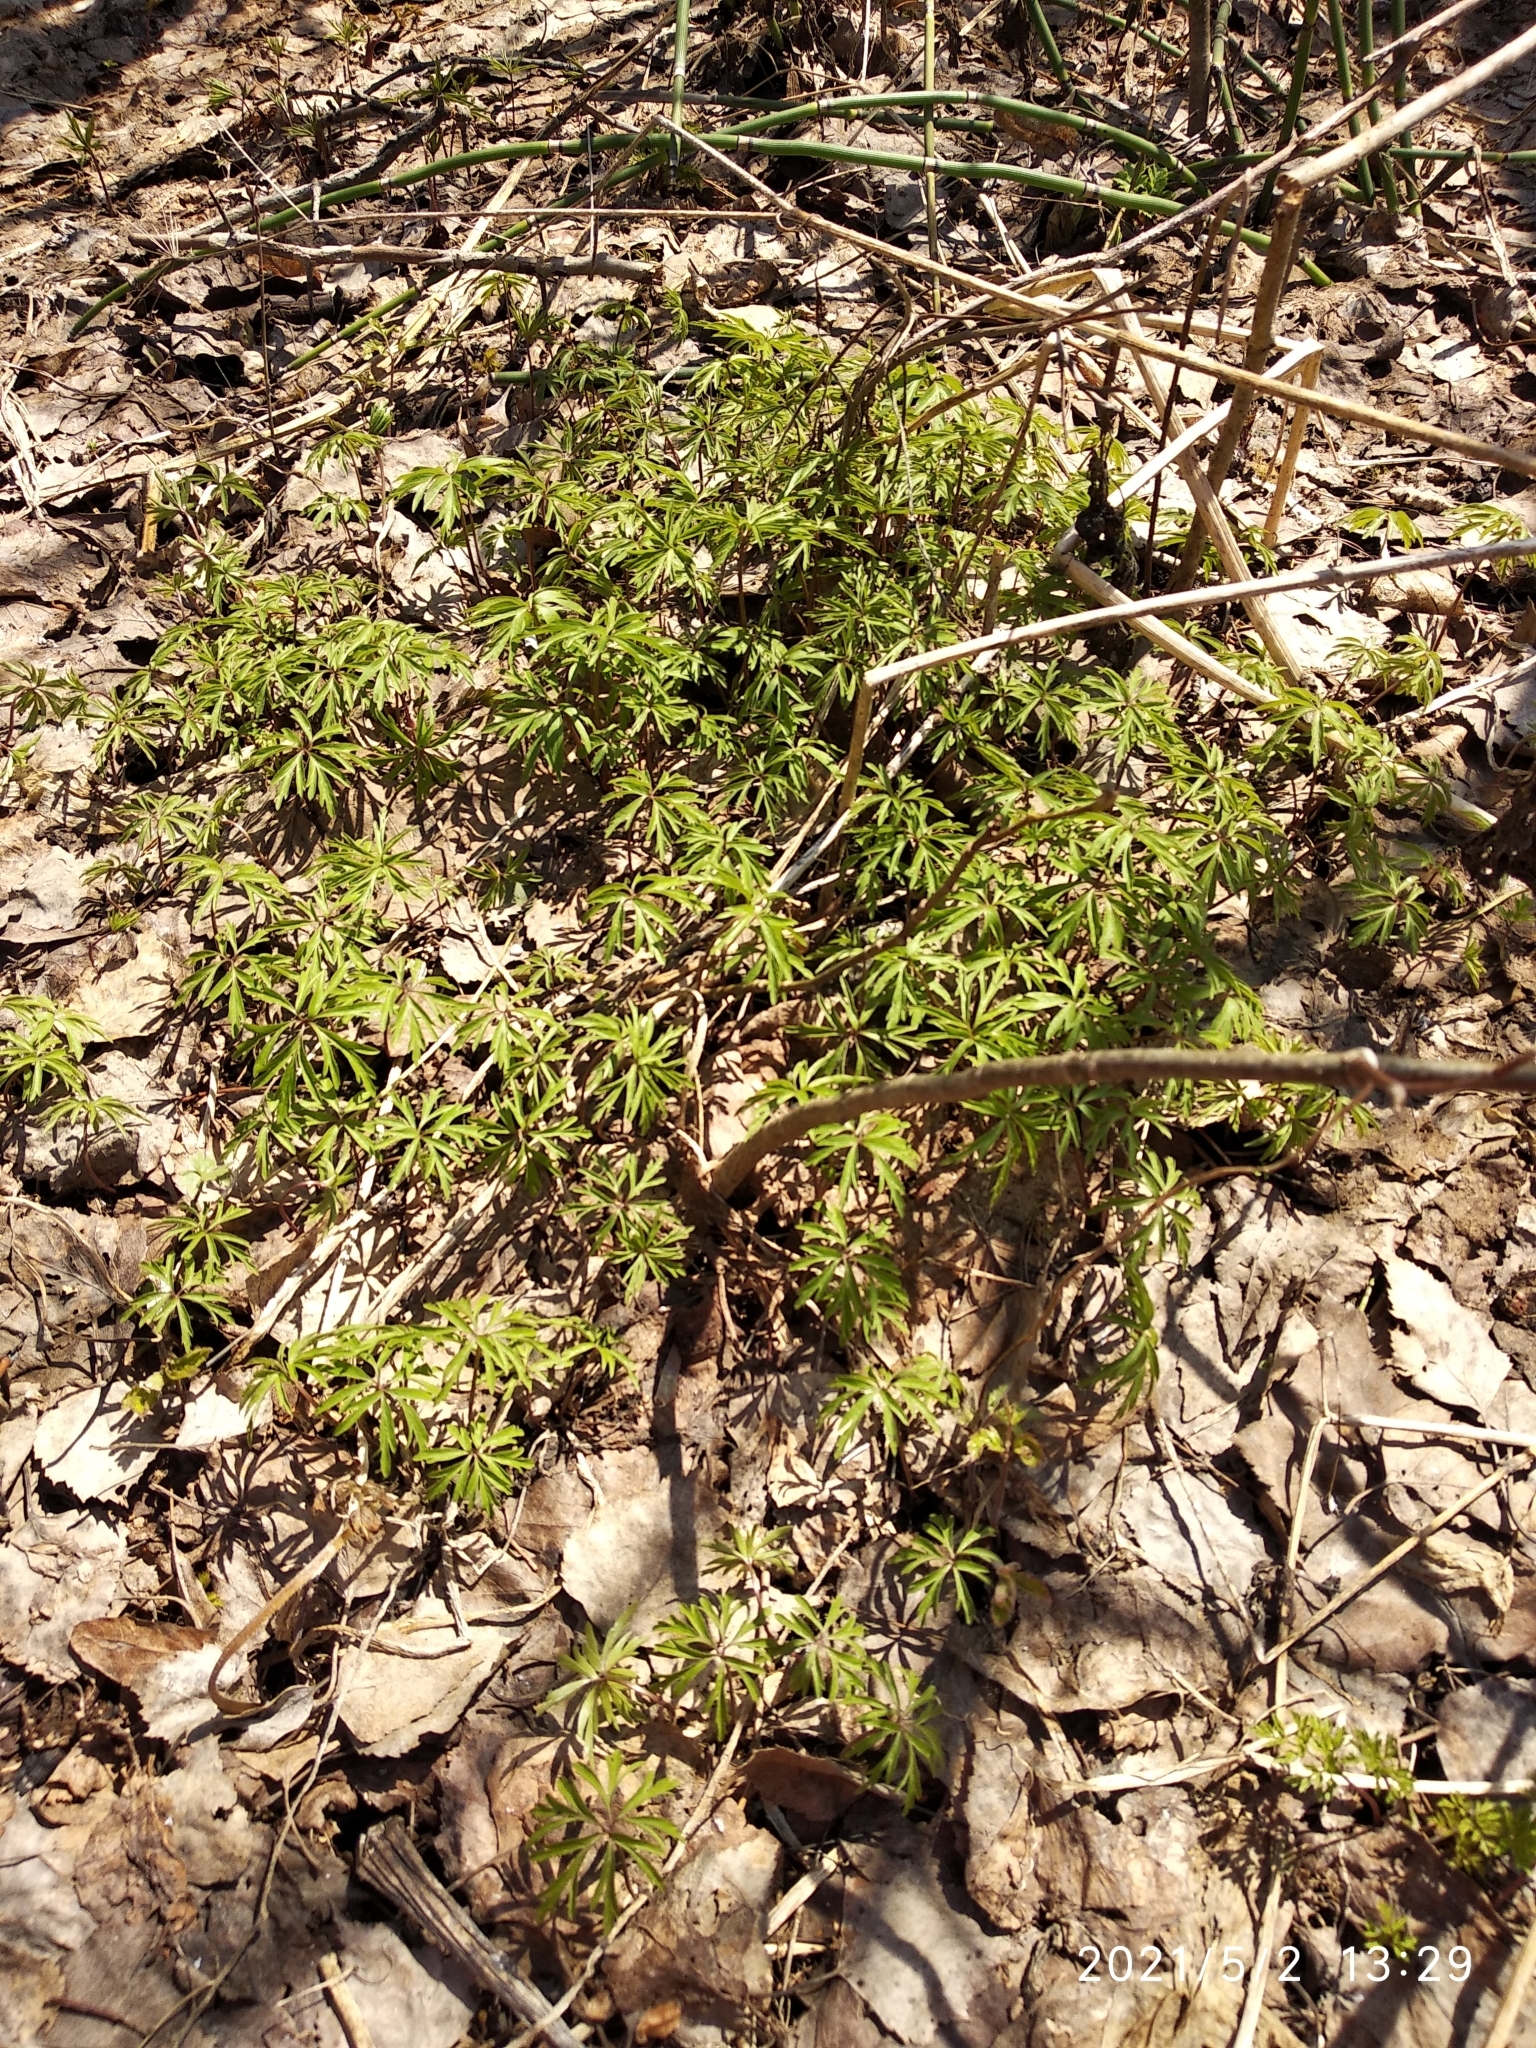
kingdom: Plantae
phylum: Tracheophyta
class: Magnoliopsida
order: Ranunculales
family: Ranunculaceae
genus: Anemone
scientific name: Anemone altaica
